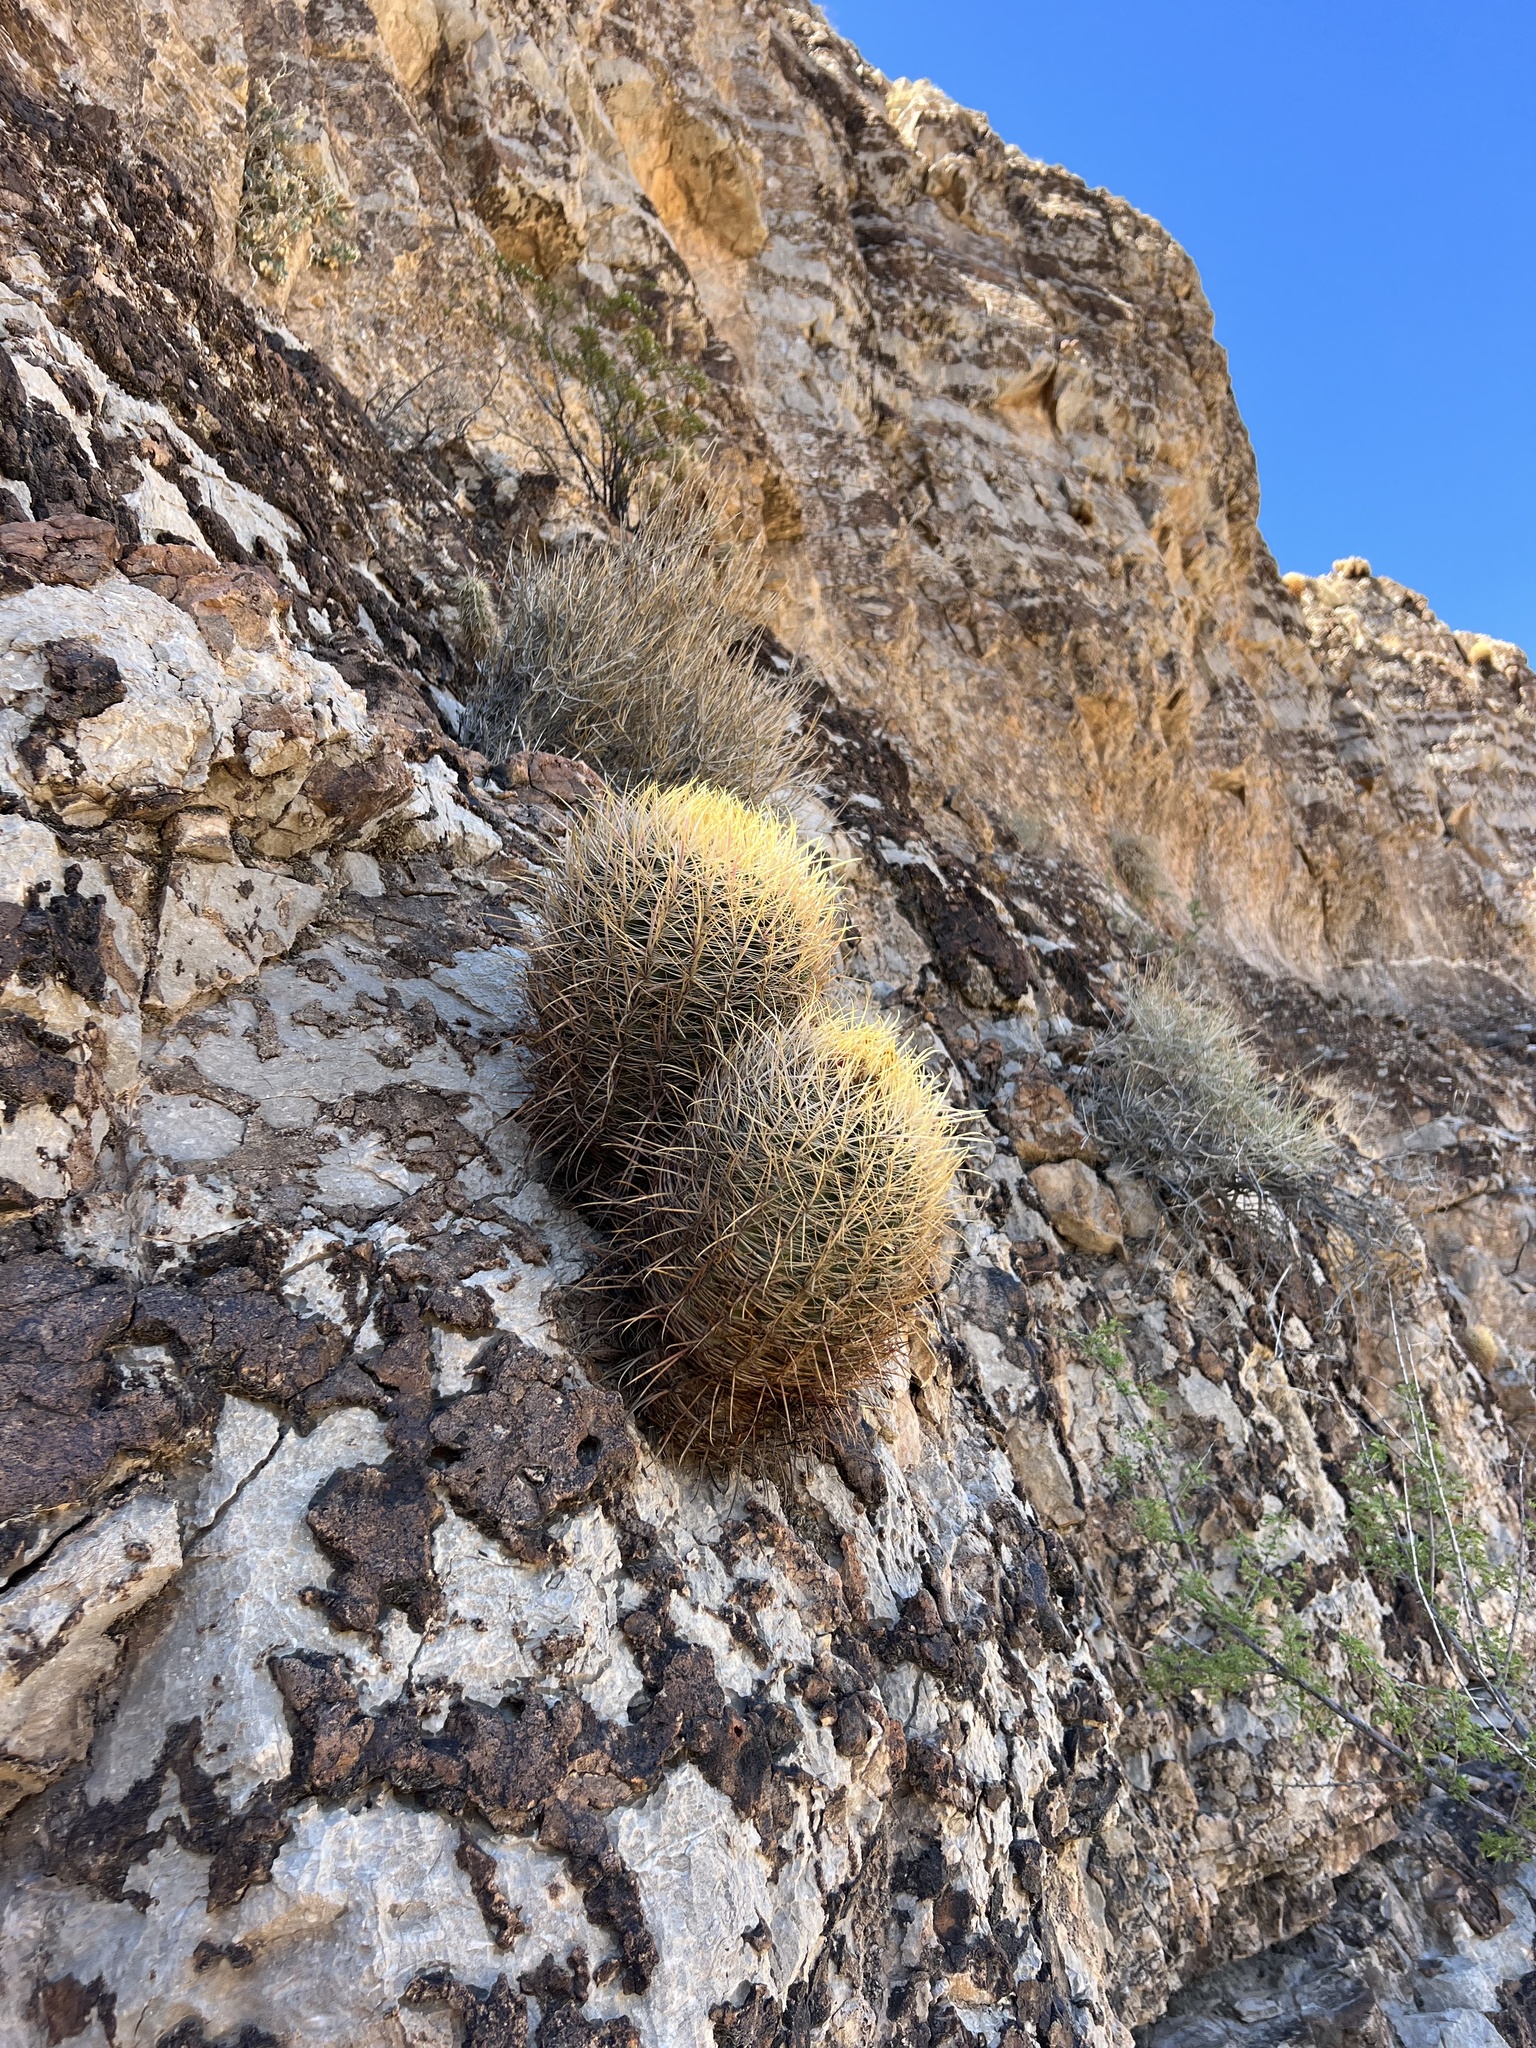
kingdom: Plantae
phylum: Tracheophyta
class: Magnoliopsida
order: Caryophyllales
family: Cactaceae
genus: Ferocactus
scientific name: Ferocactus cylindraceus
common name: California barrel cactus
